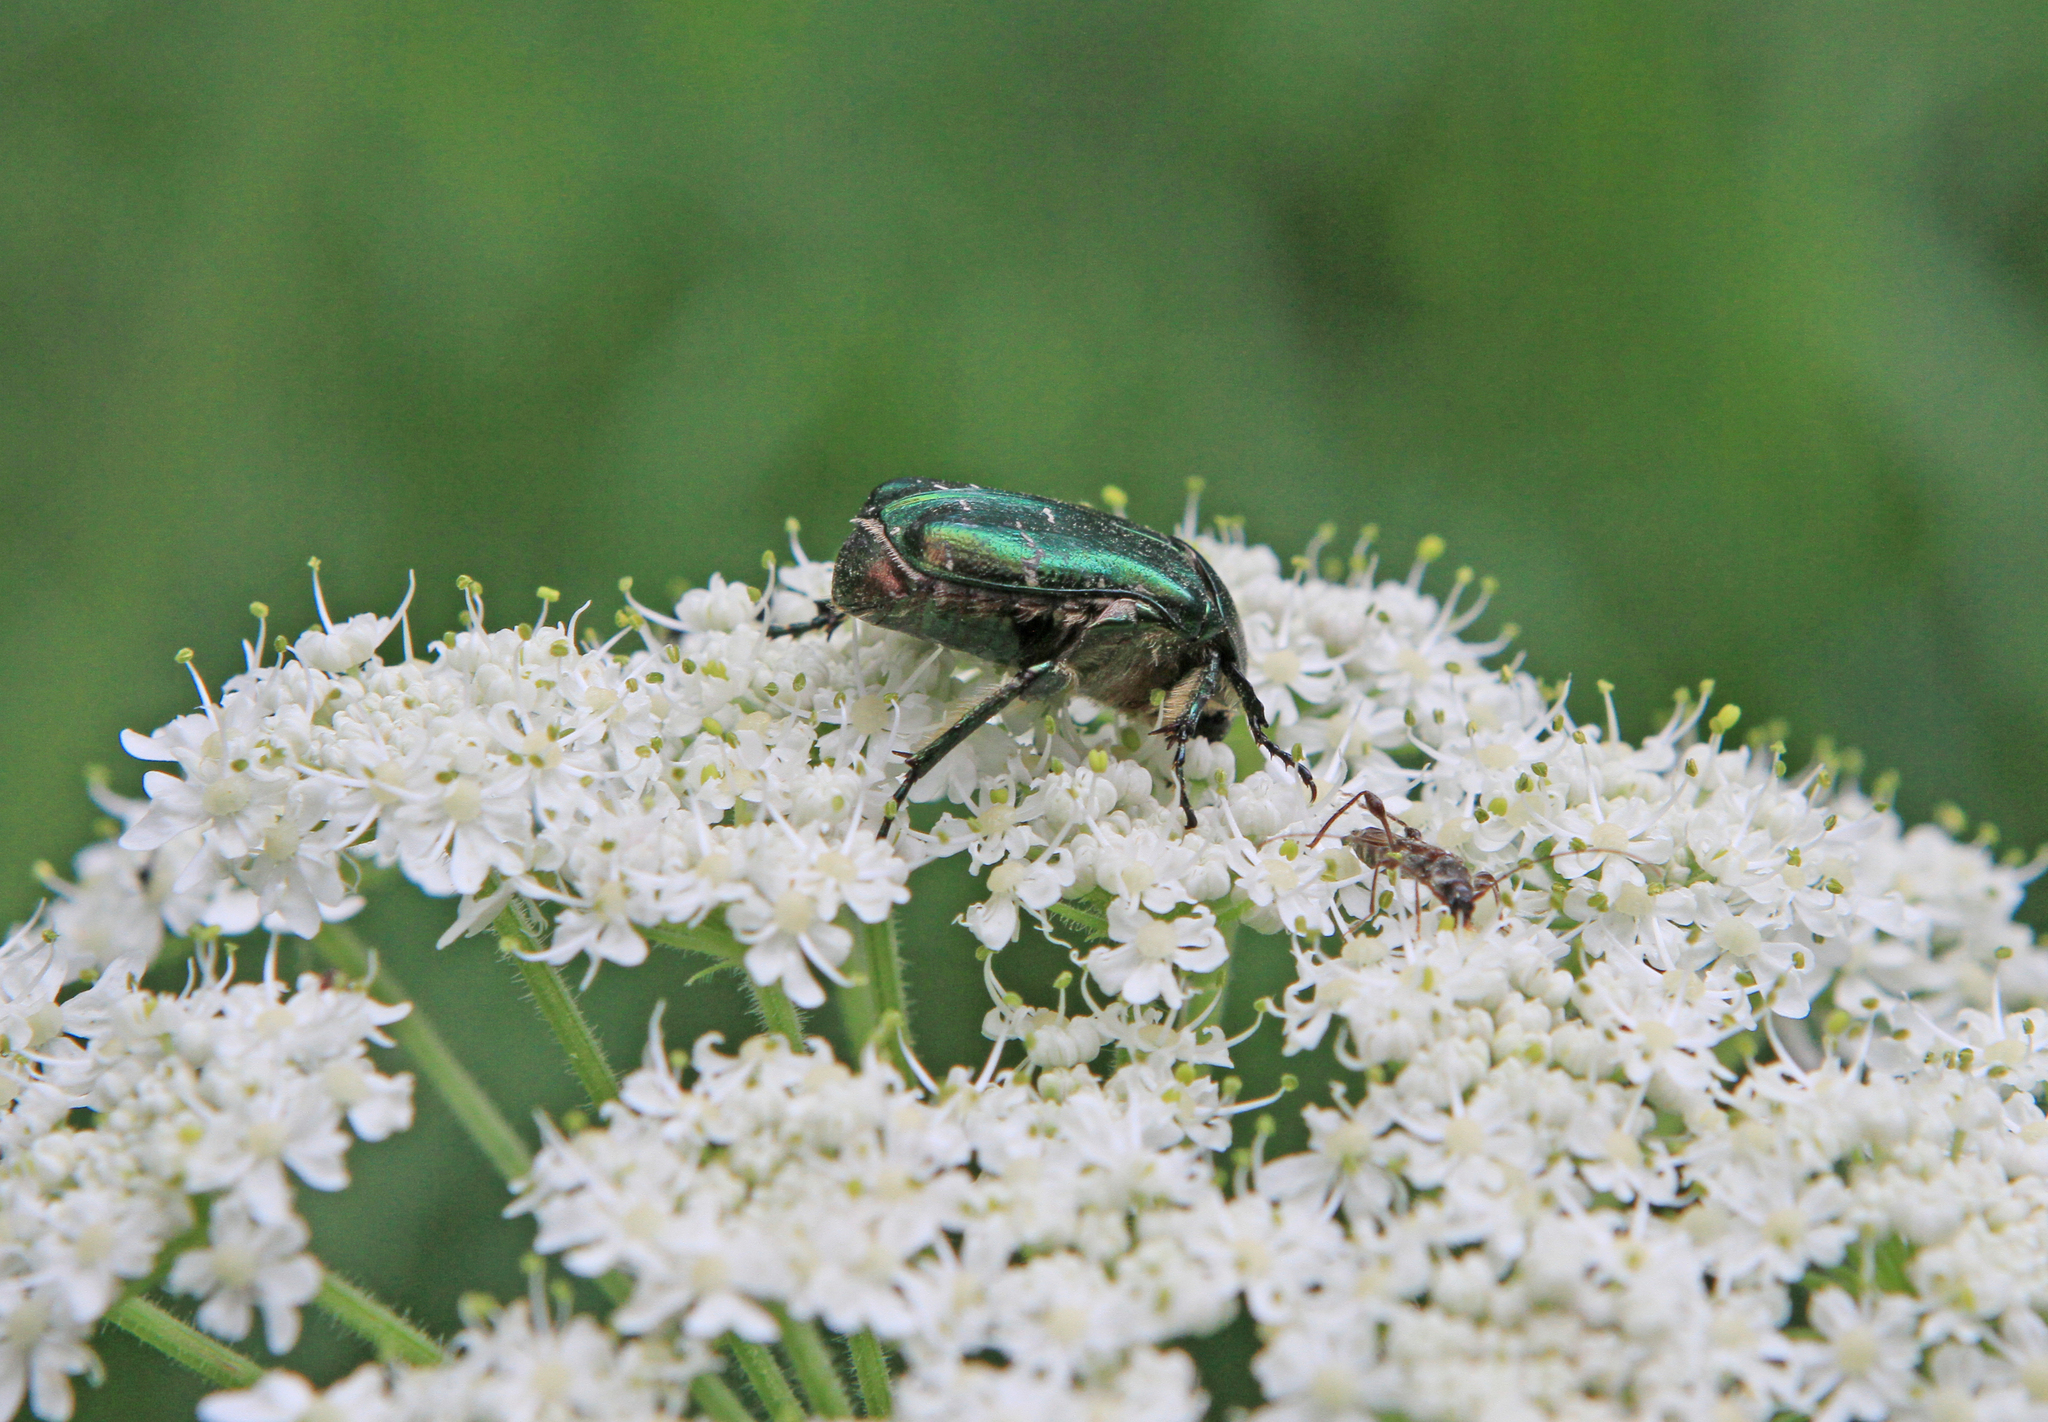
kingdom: Animalia
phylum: Arthropoda
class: Insecta
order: Coleoptera
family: Scarabaeidae
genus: Cetonia
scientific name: Cetonia aurata
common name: Rose chafer
